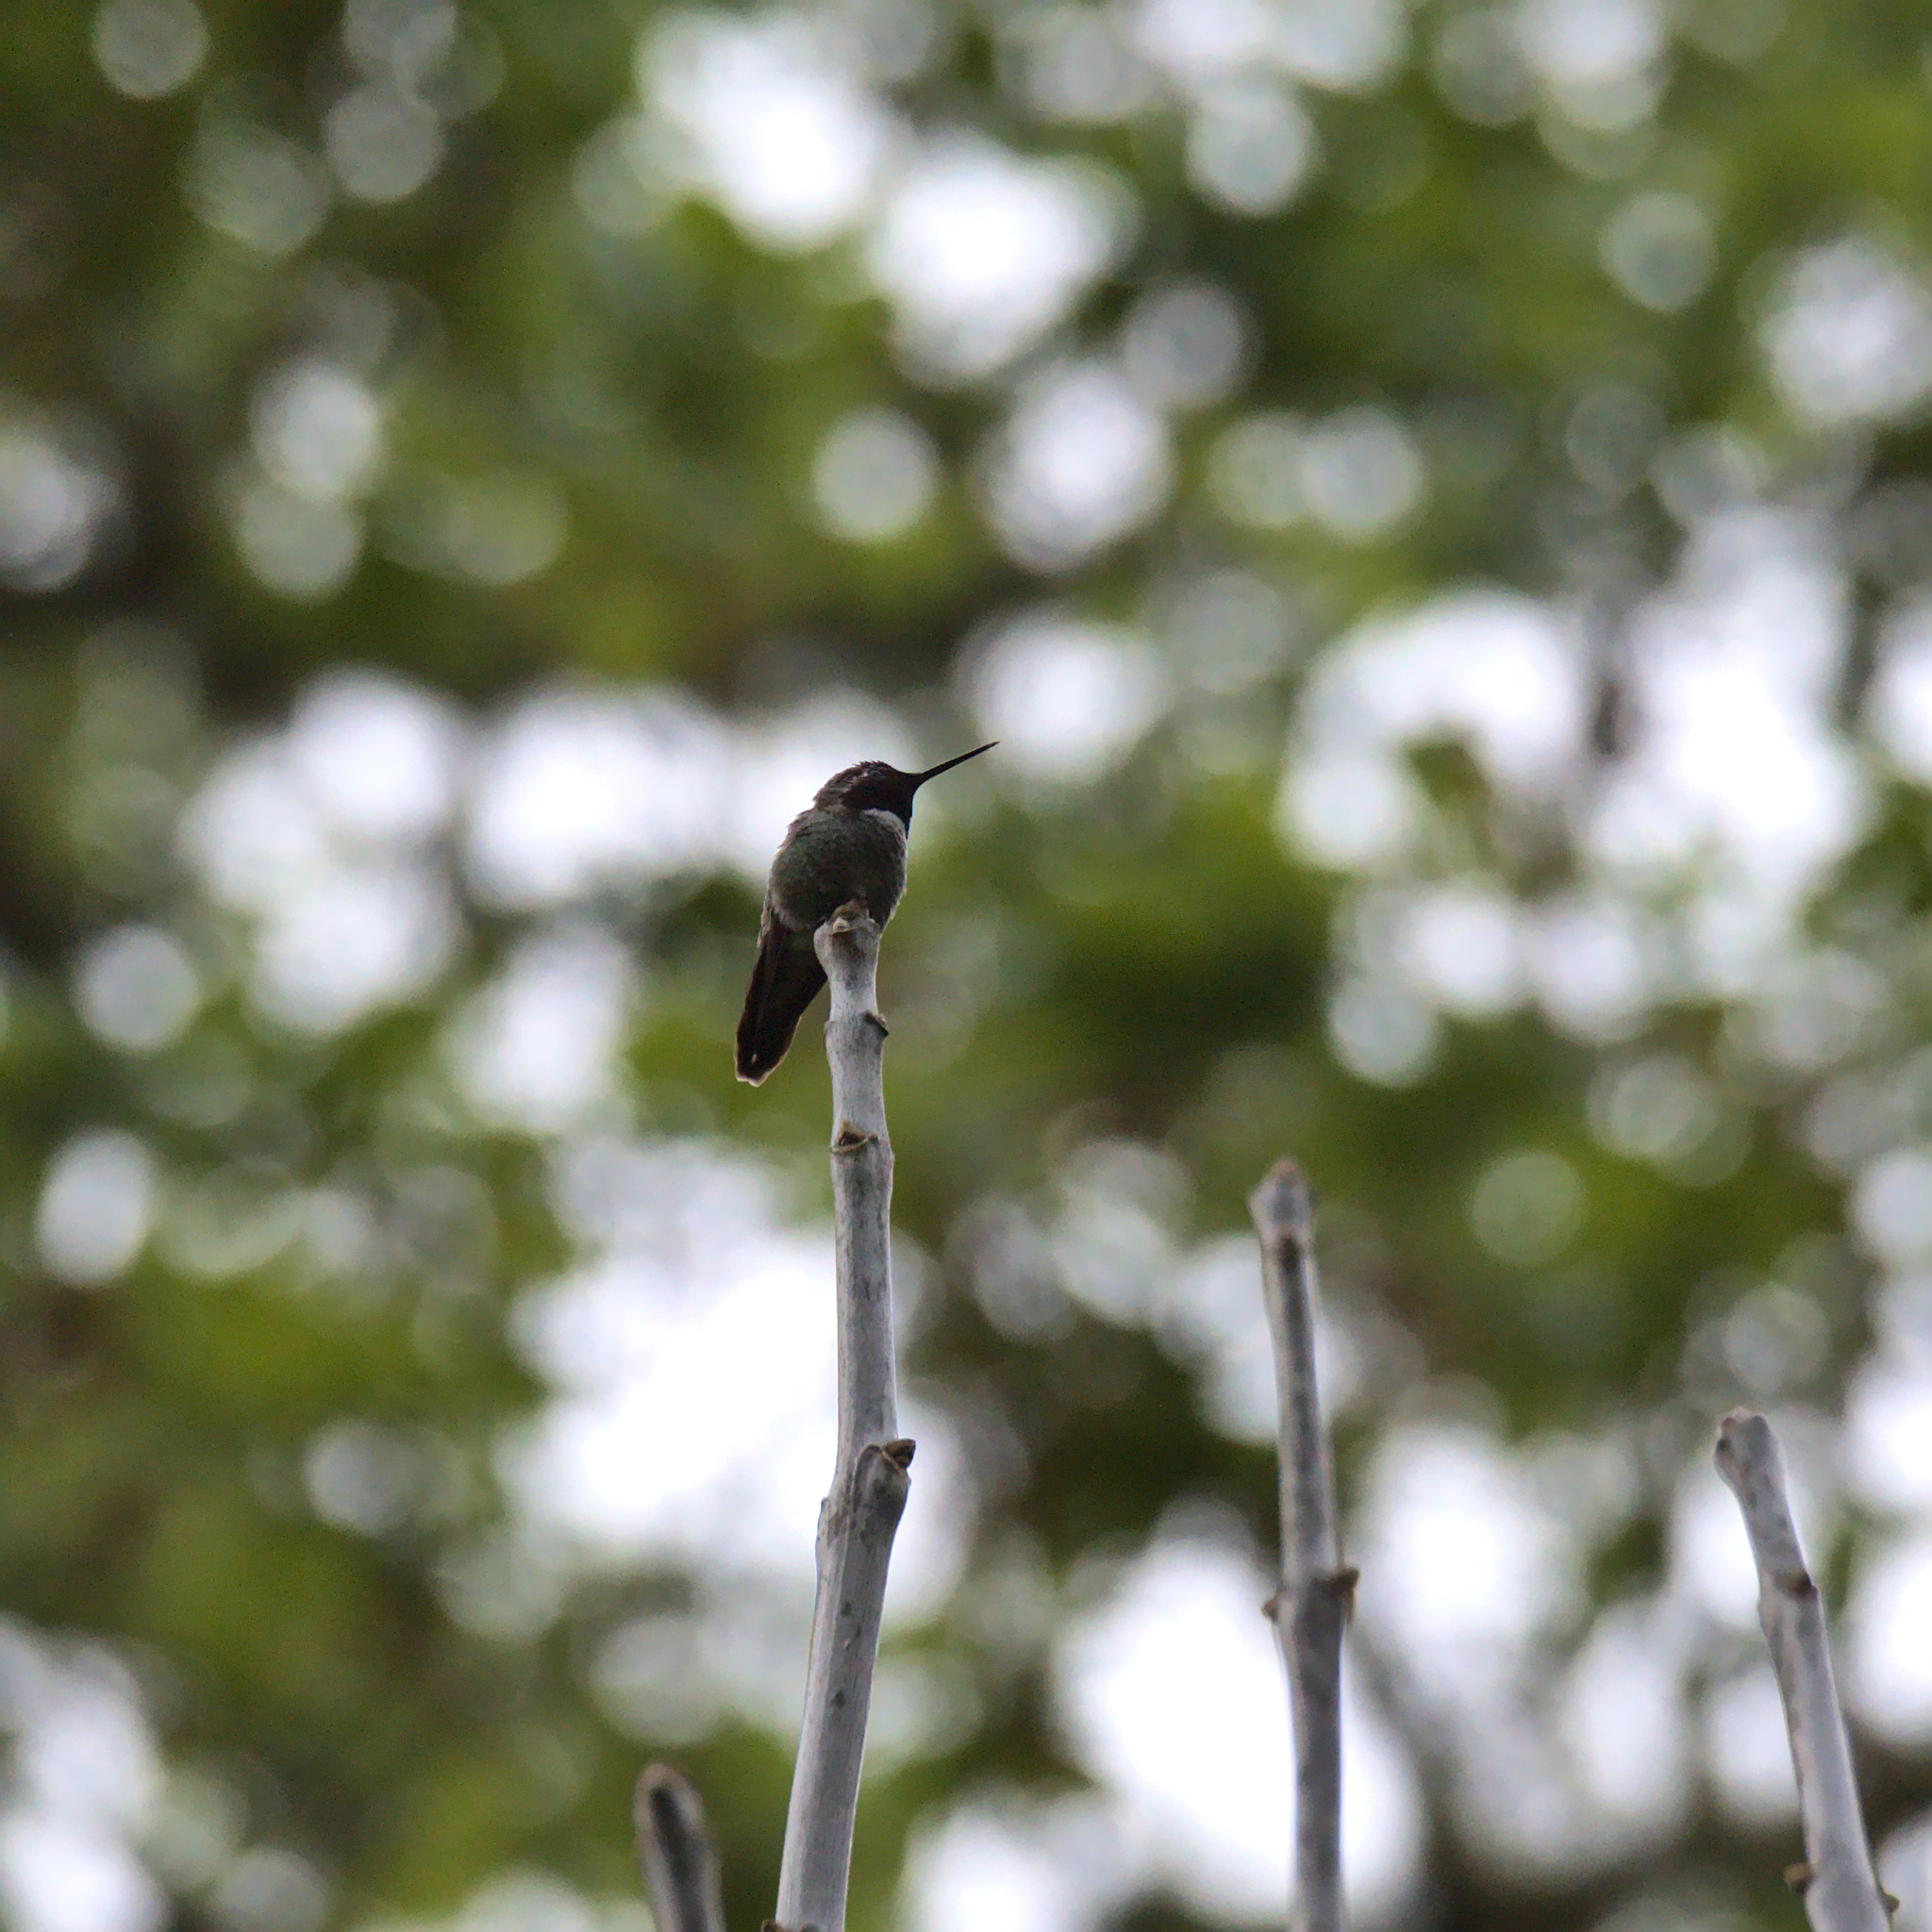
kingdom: Animalia
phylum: Chordata
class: Aves
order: Apodiformes
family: Trochilidae
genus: Calypte
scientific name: Calypte anna
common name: Anna's hummingbird
